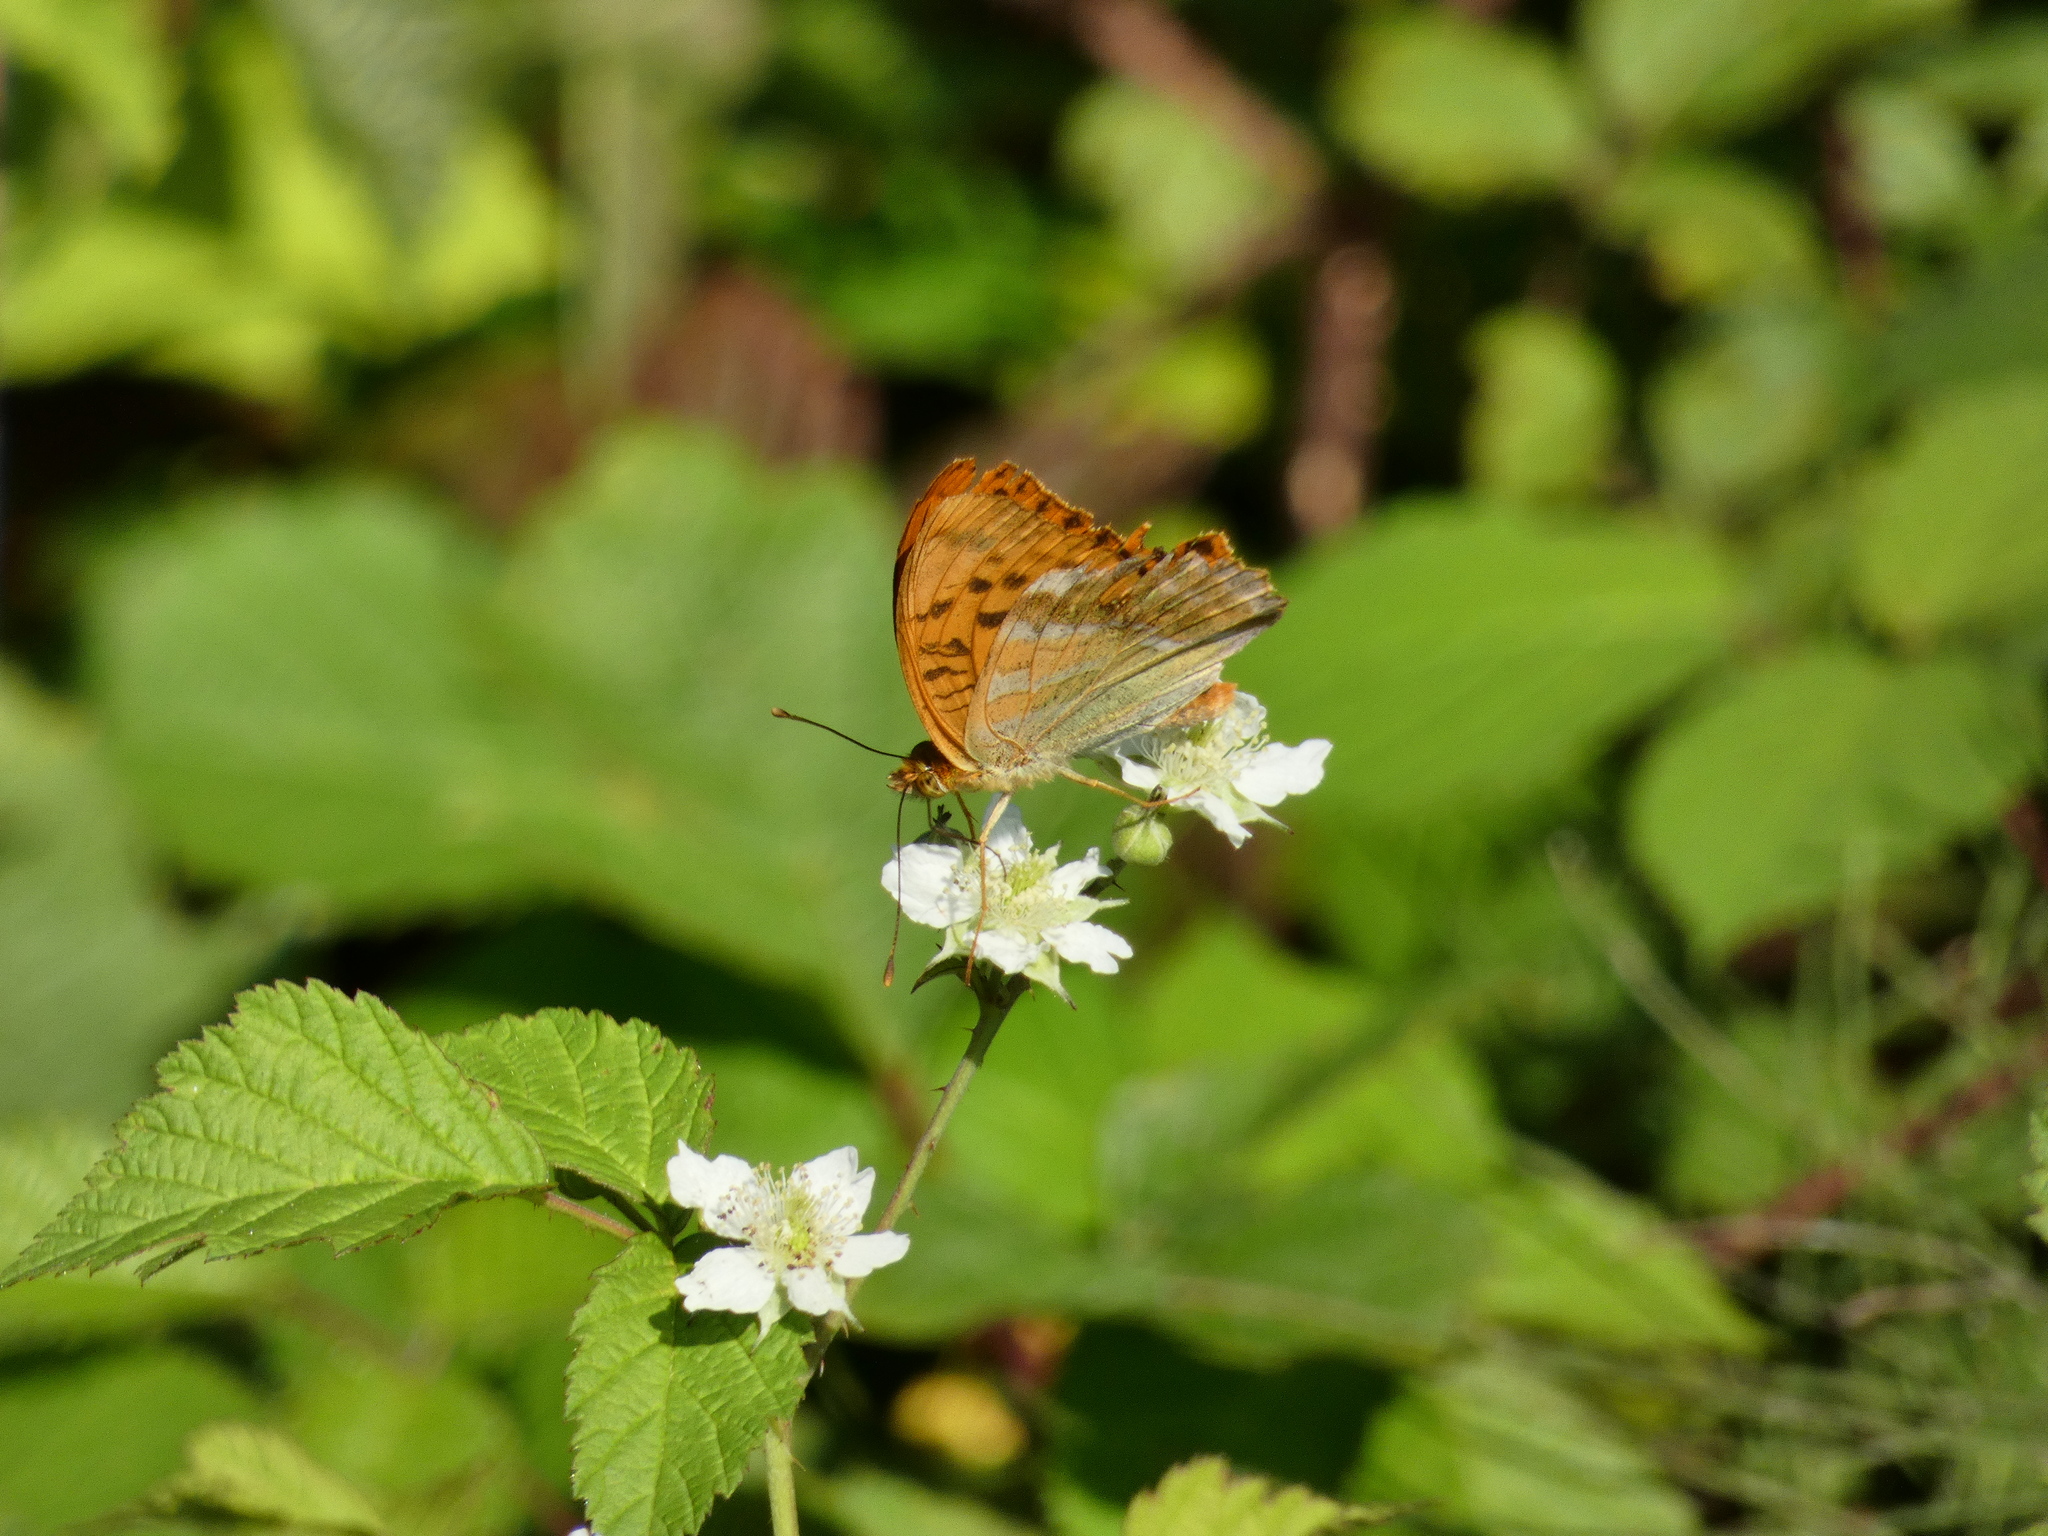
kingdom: Animalia
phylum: Arthropoda
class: Insecta
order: Lepidoptera
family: Nymphalidae
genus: Argynnis
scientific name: Argynnis paphia
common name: Silver-washed fritillary
